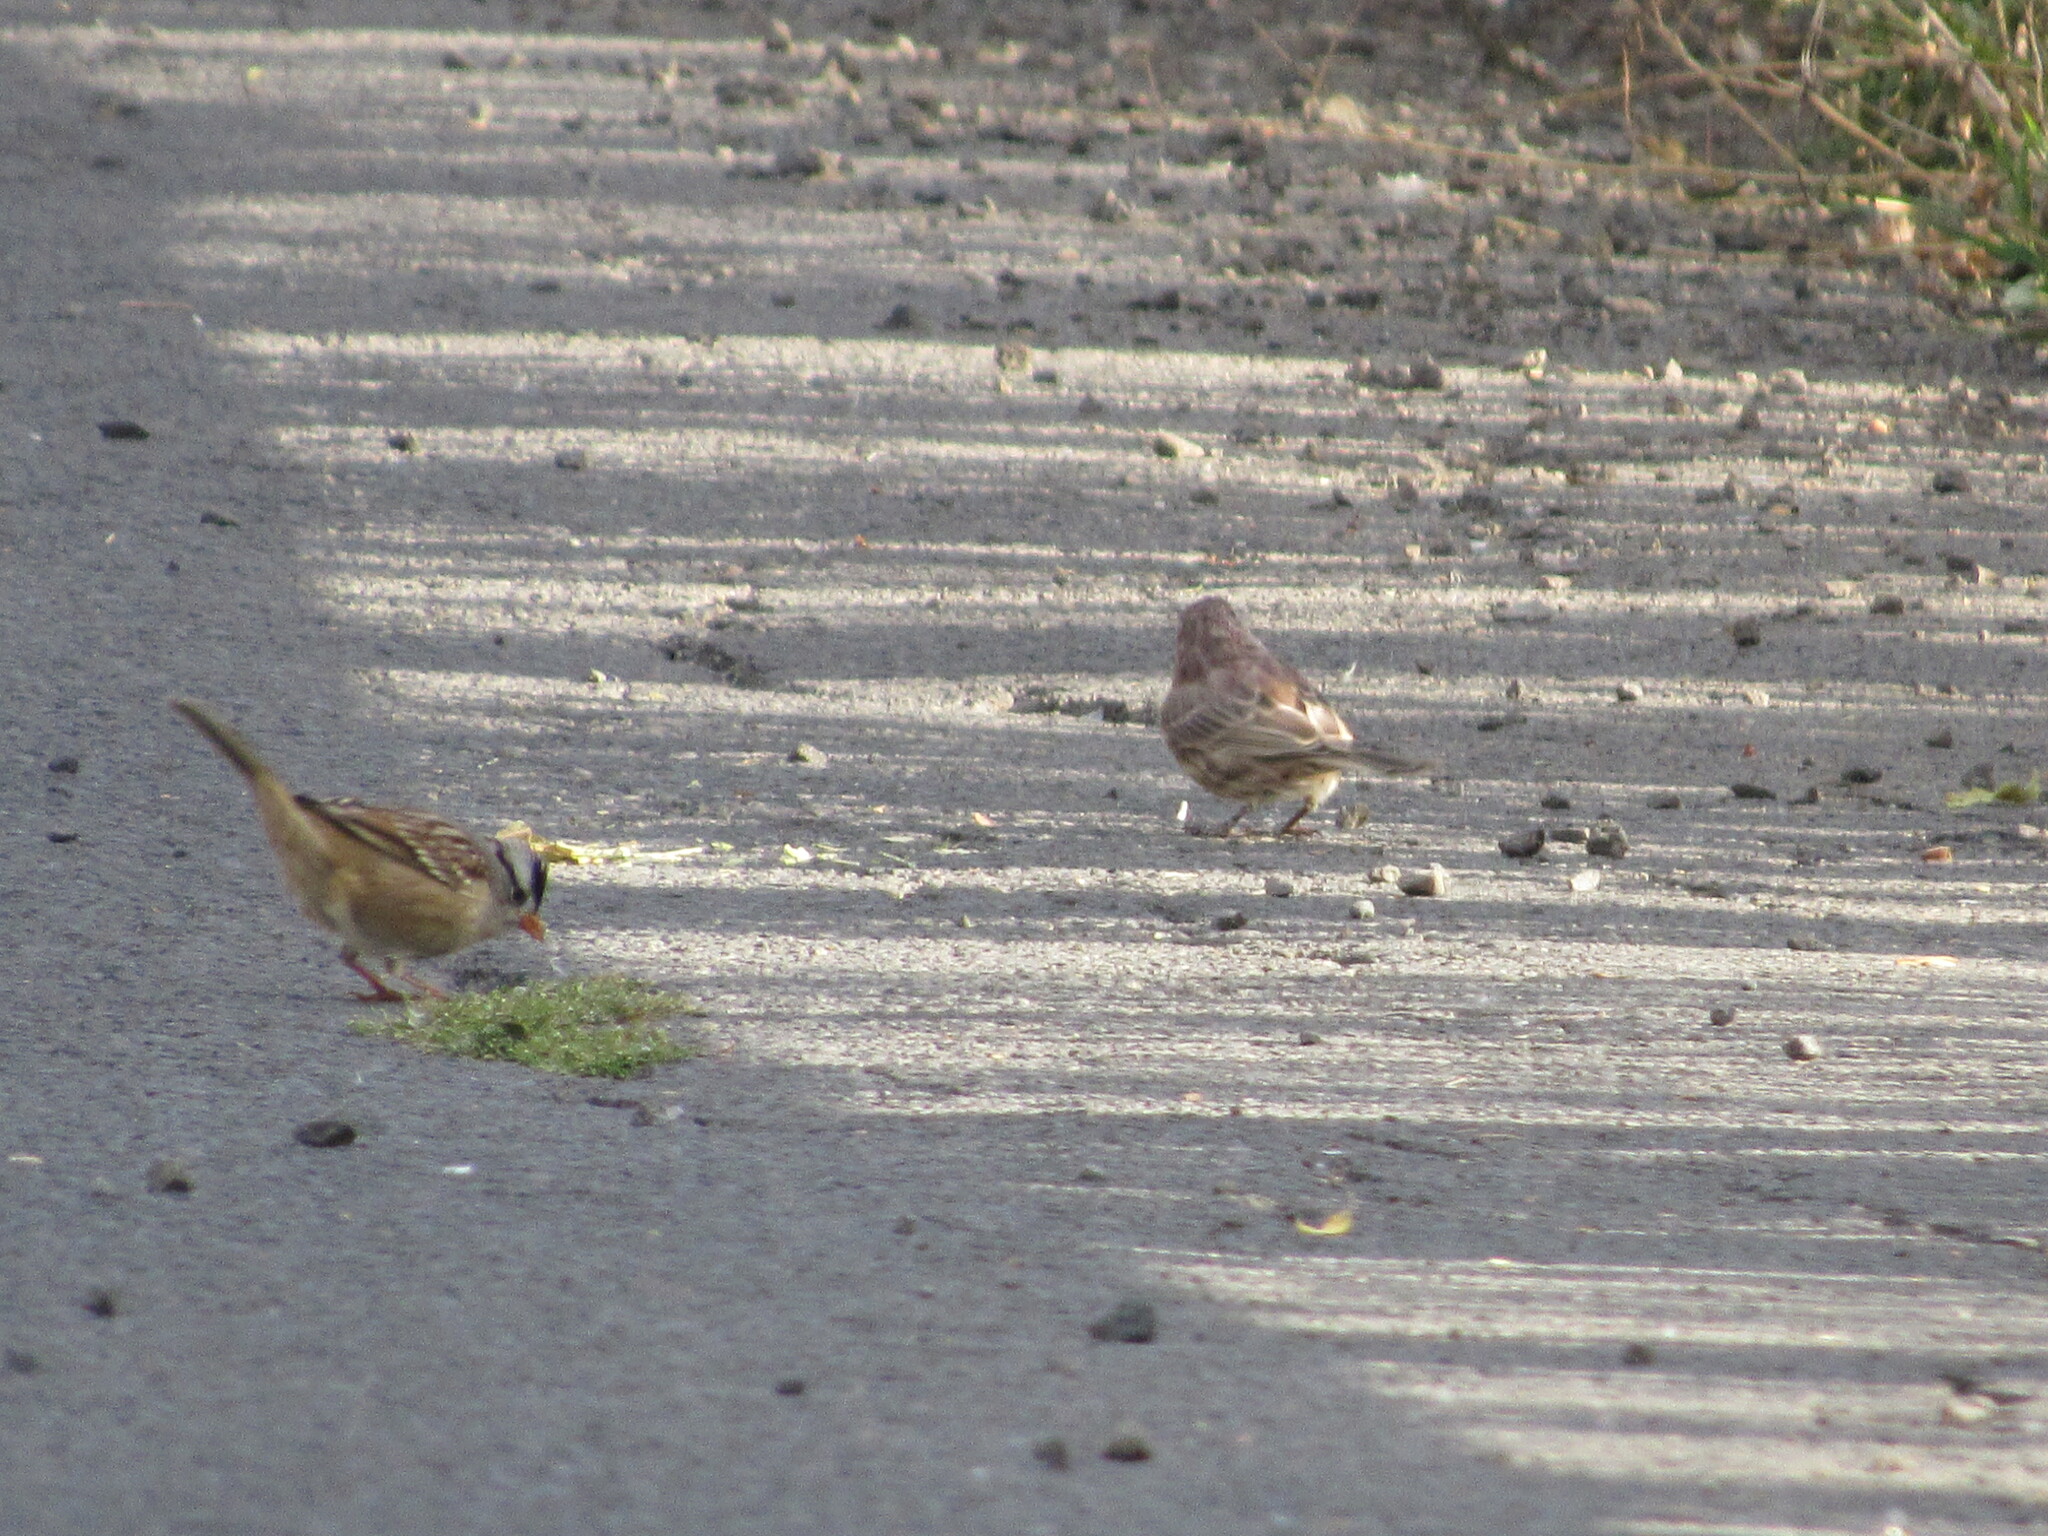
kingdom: Animalia
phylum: Chordata
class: Aves
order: Passeriformes
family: Passerellidae
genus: Zonotrichia
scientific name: Zonotrichia leucophrys
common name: White-crowned sparrow
